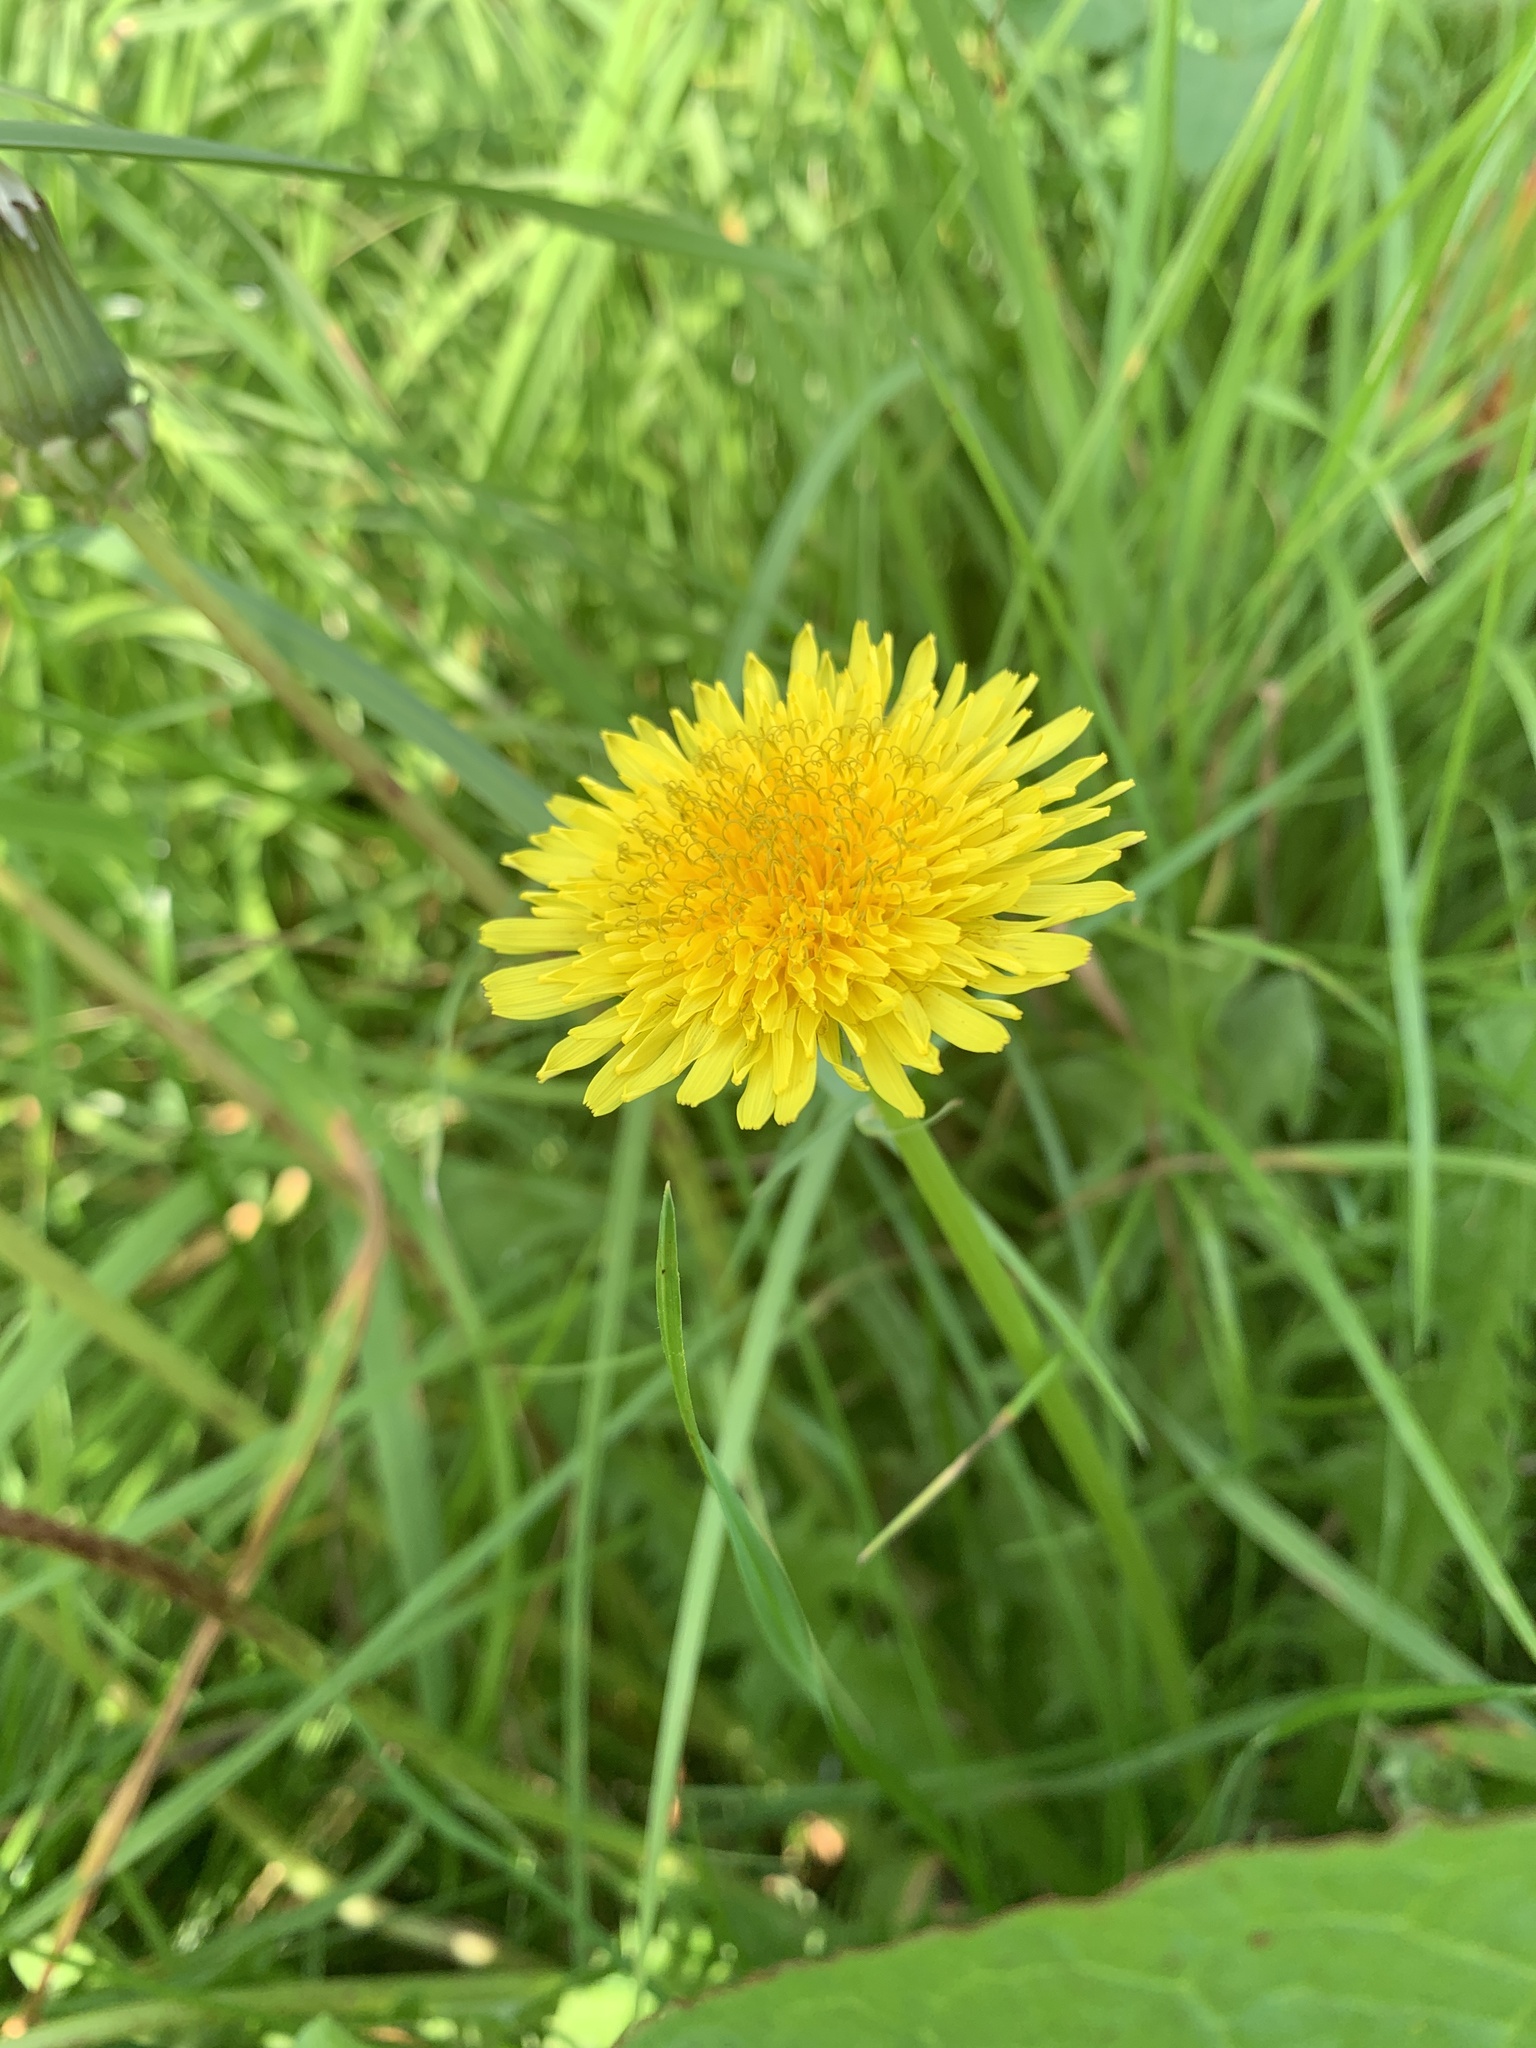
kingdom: Plantae
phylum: Tracheophyta
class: Magnoliopsida
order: Asterales
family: Asteraceae
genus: Taraxacum
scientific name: Taraxacum officinale
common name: Common dandelion
